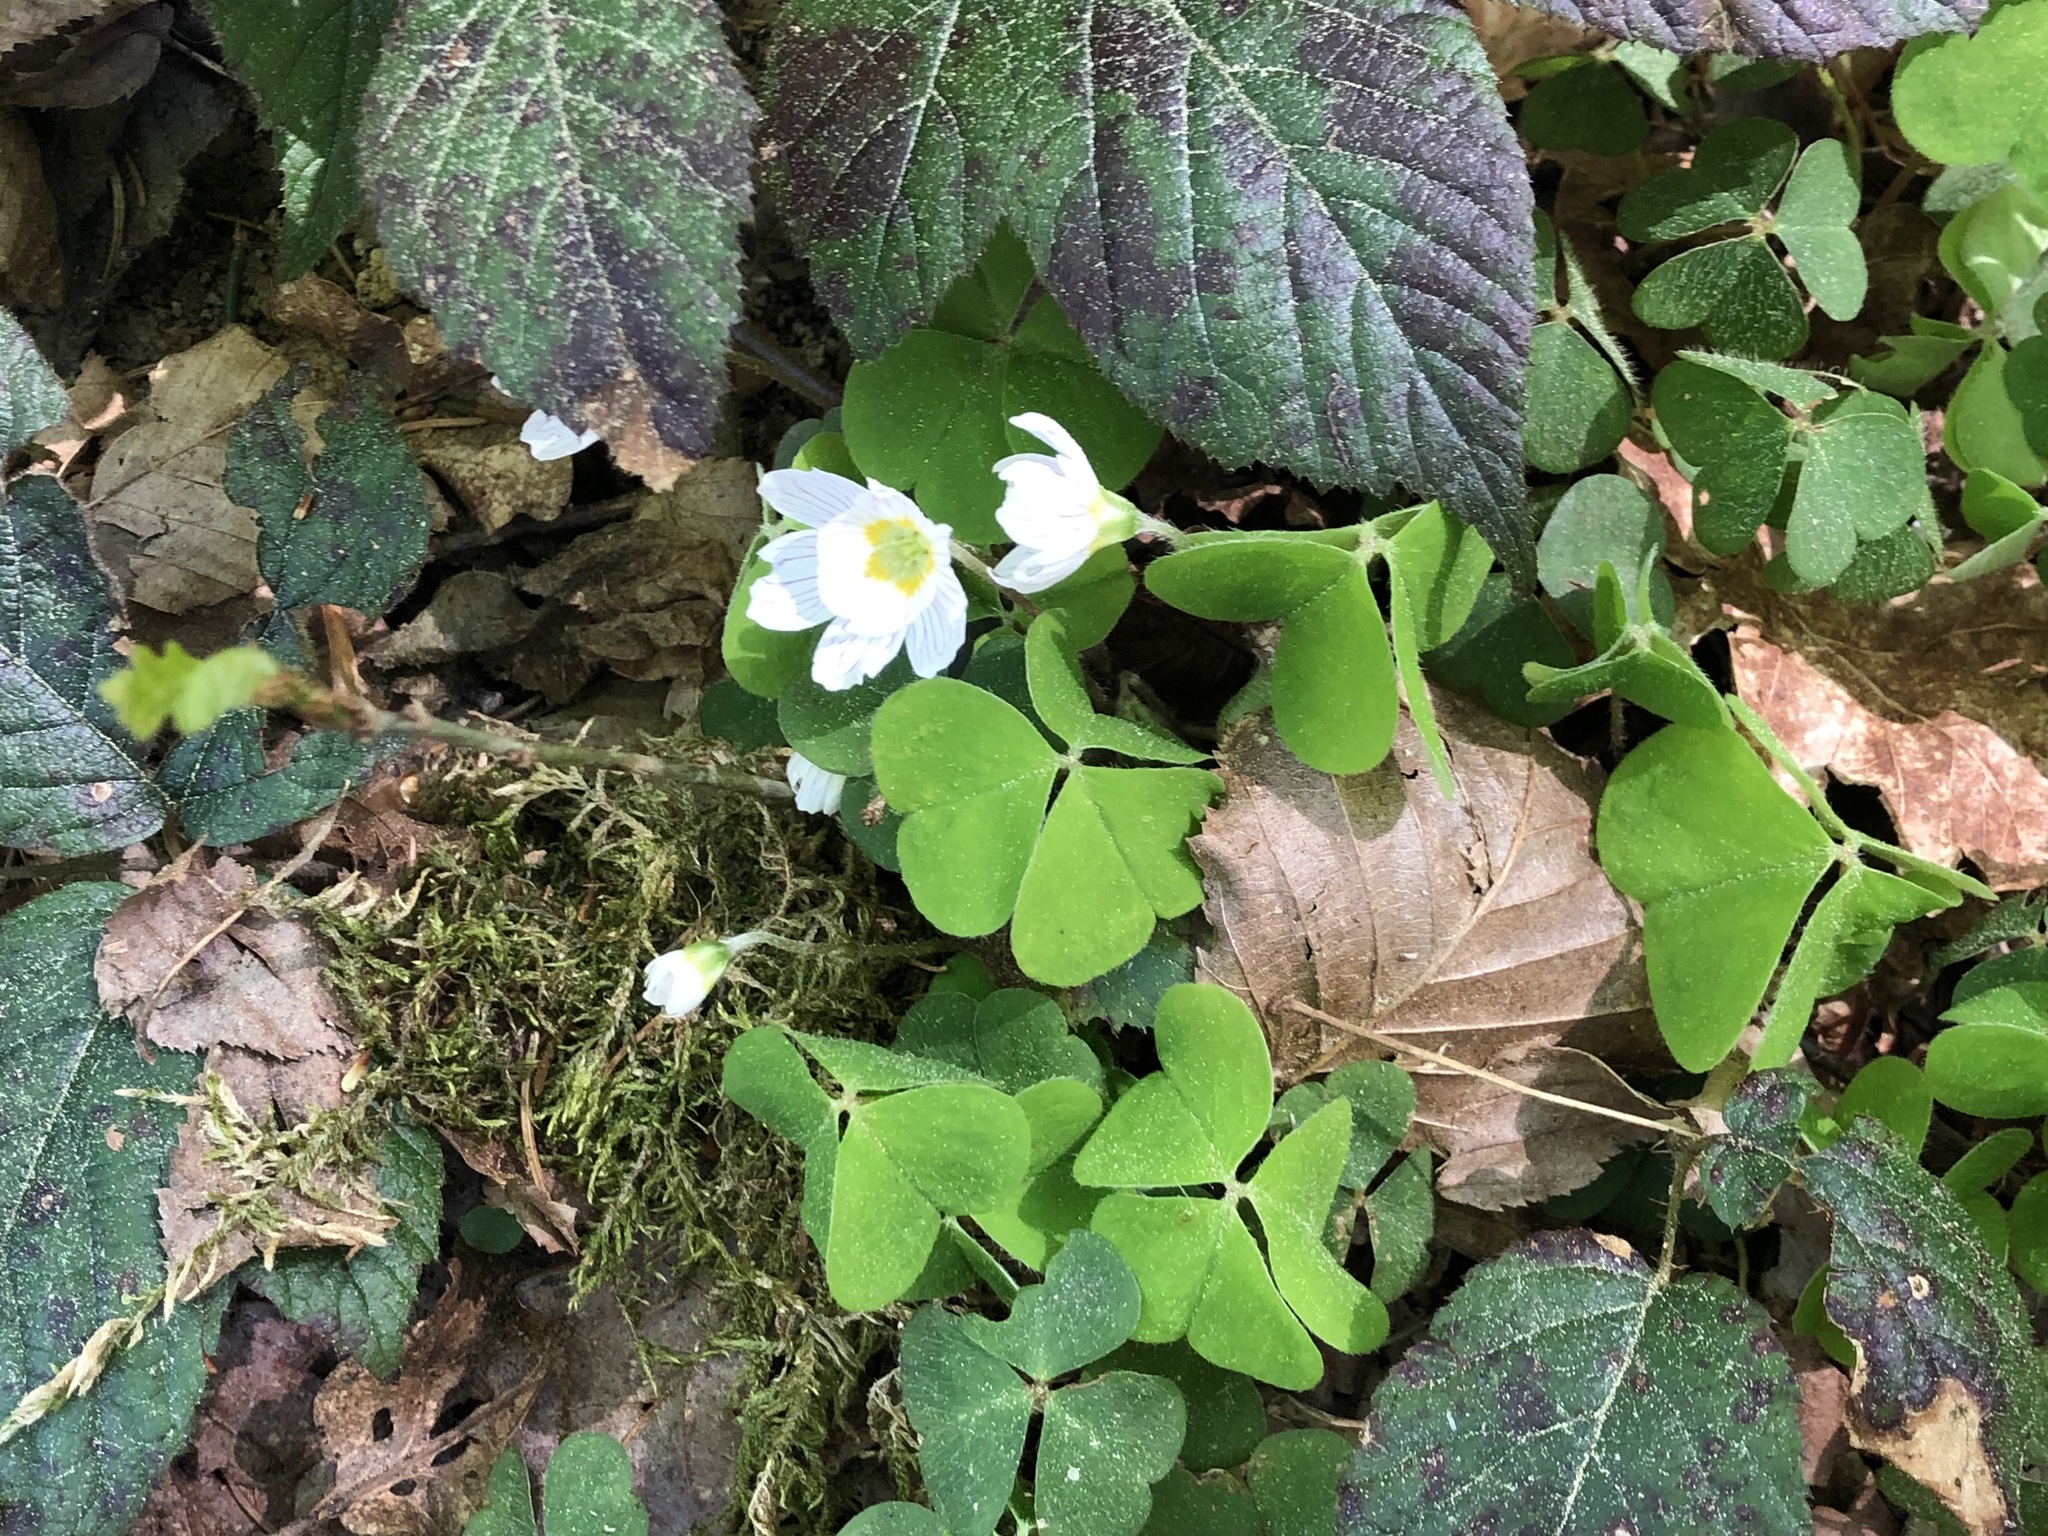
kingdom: Plantae
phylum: Tracheophyta
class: Magnoliopsida
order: Oxalidales
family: Oxalidaceae
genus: Oxalis
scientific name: Oxalis acetosella
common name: Wood-sorrel
